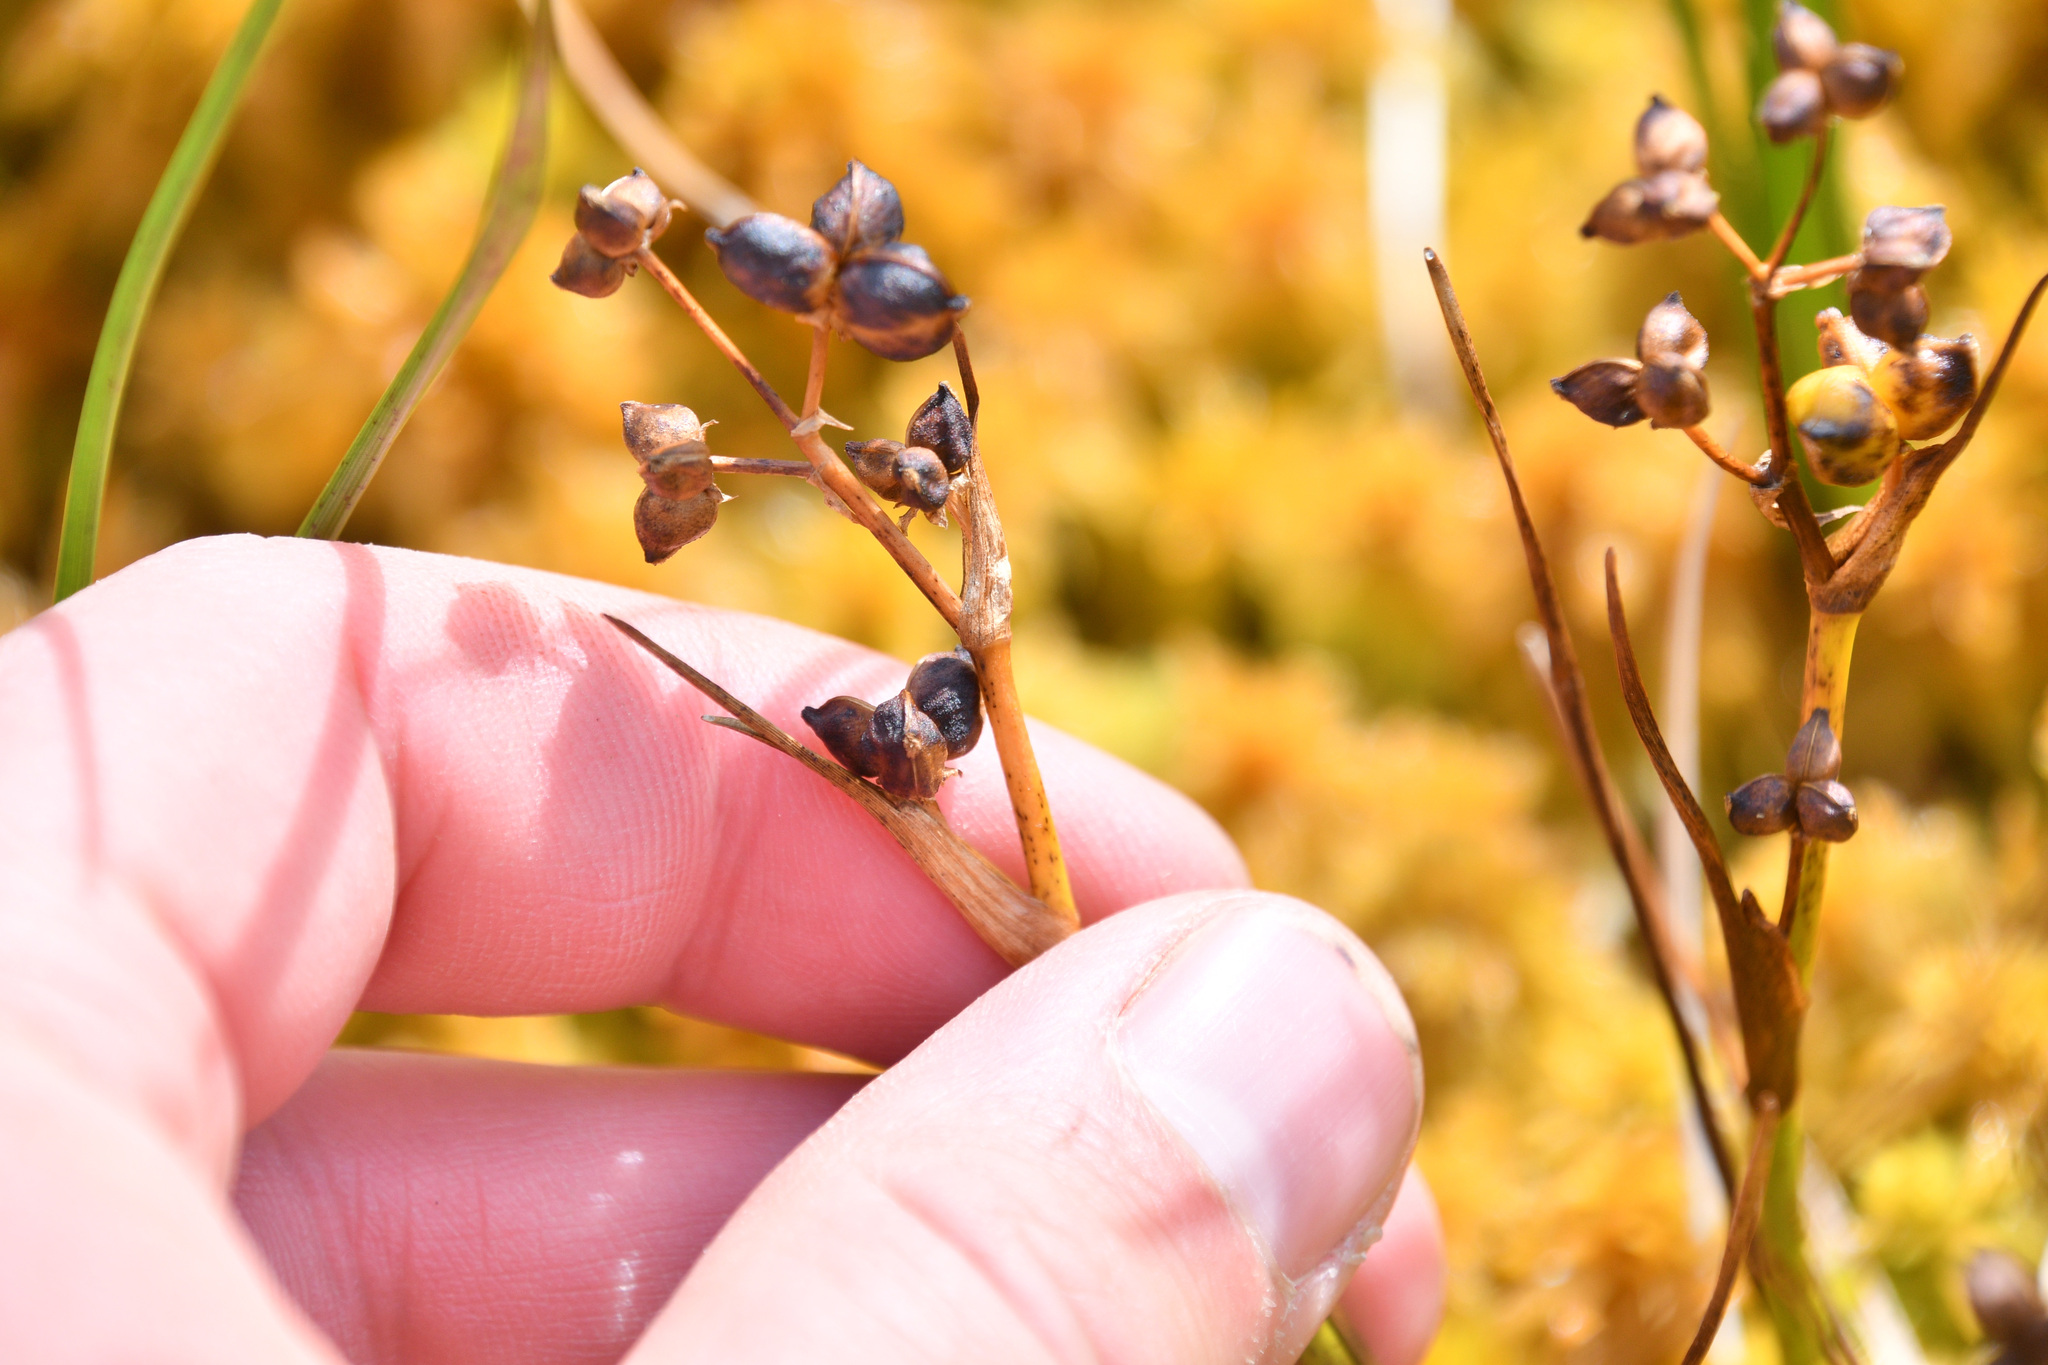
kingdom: Plantae
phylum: Tracheophyta
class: Liliopsida
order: Alismatales
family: Scheuchzeriaceae
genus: Scheuchzeria
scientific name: Scheuchzeria palustris
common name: Rannoch-rush
